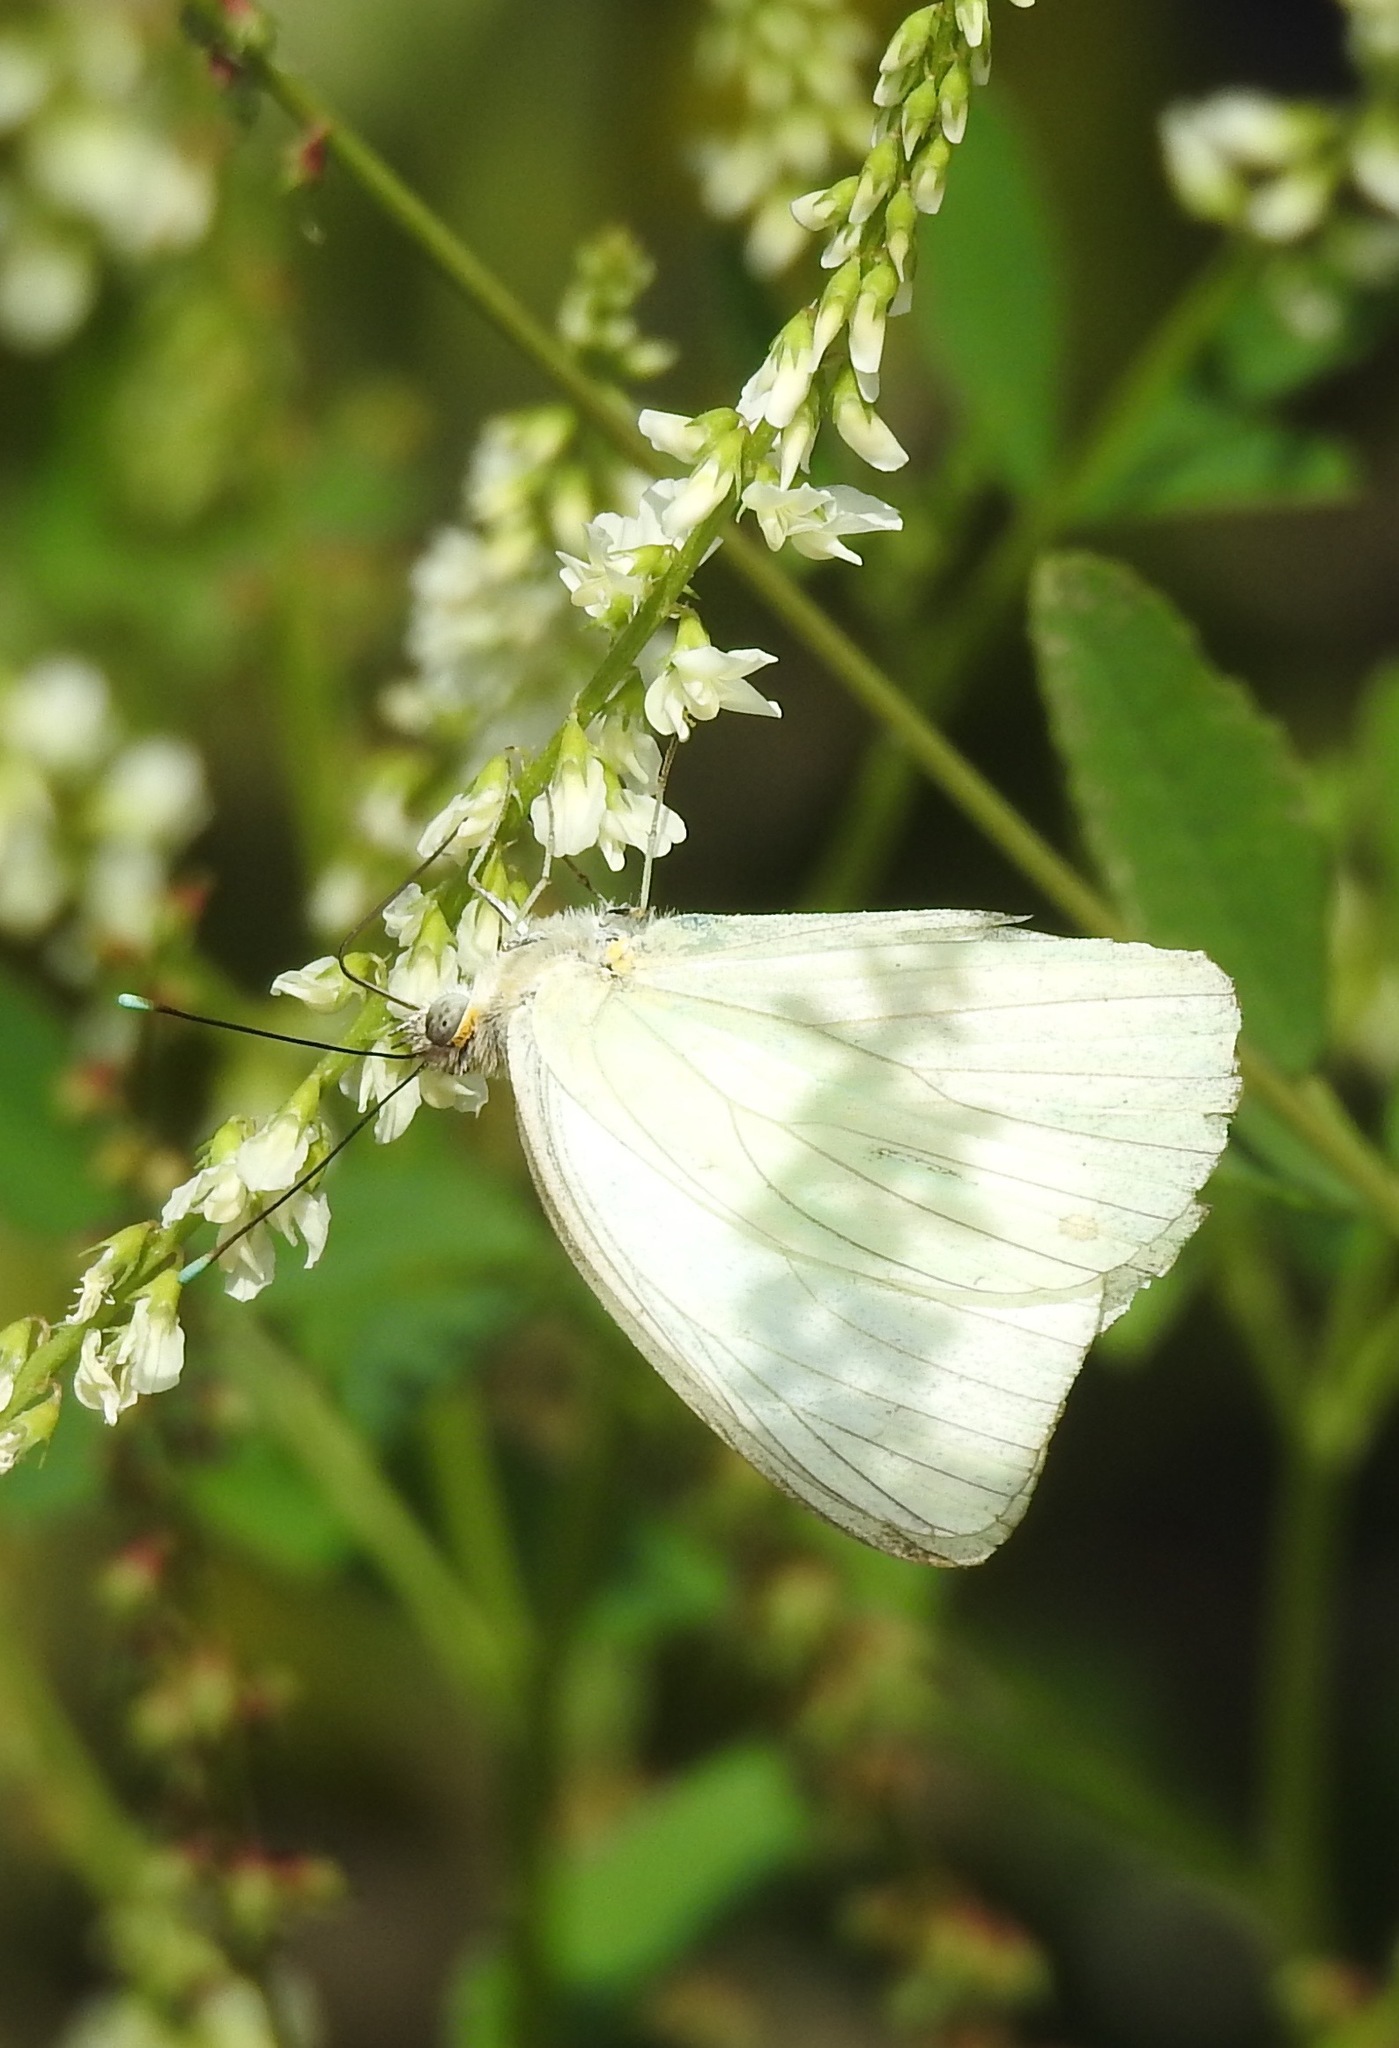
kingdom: Animalia
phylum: Arthropoda
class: Insecta
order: Lepidoptera
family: Pieridae
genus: Ascia
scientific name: Ascia monuste
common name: Great southern white
